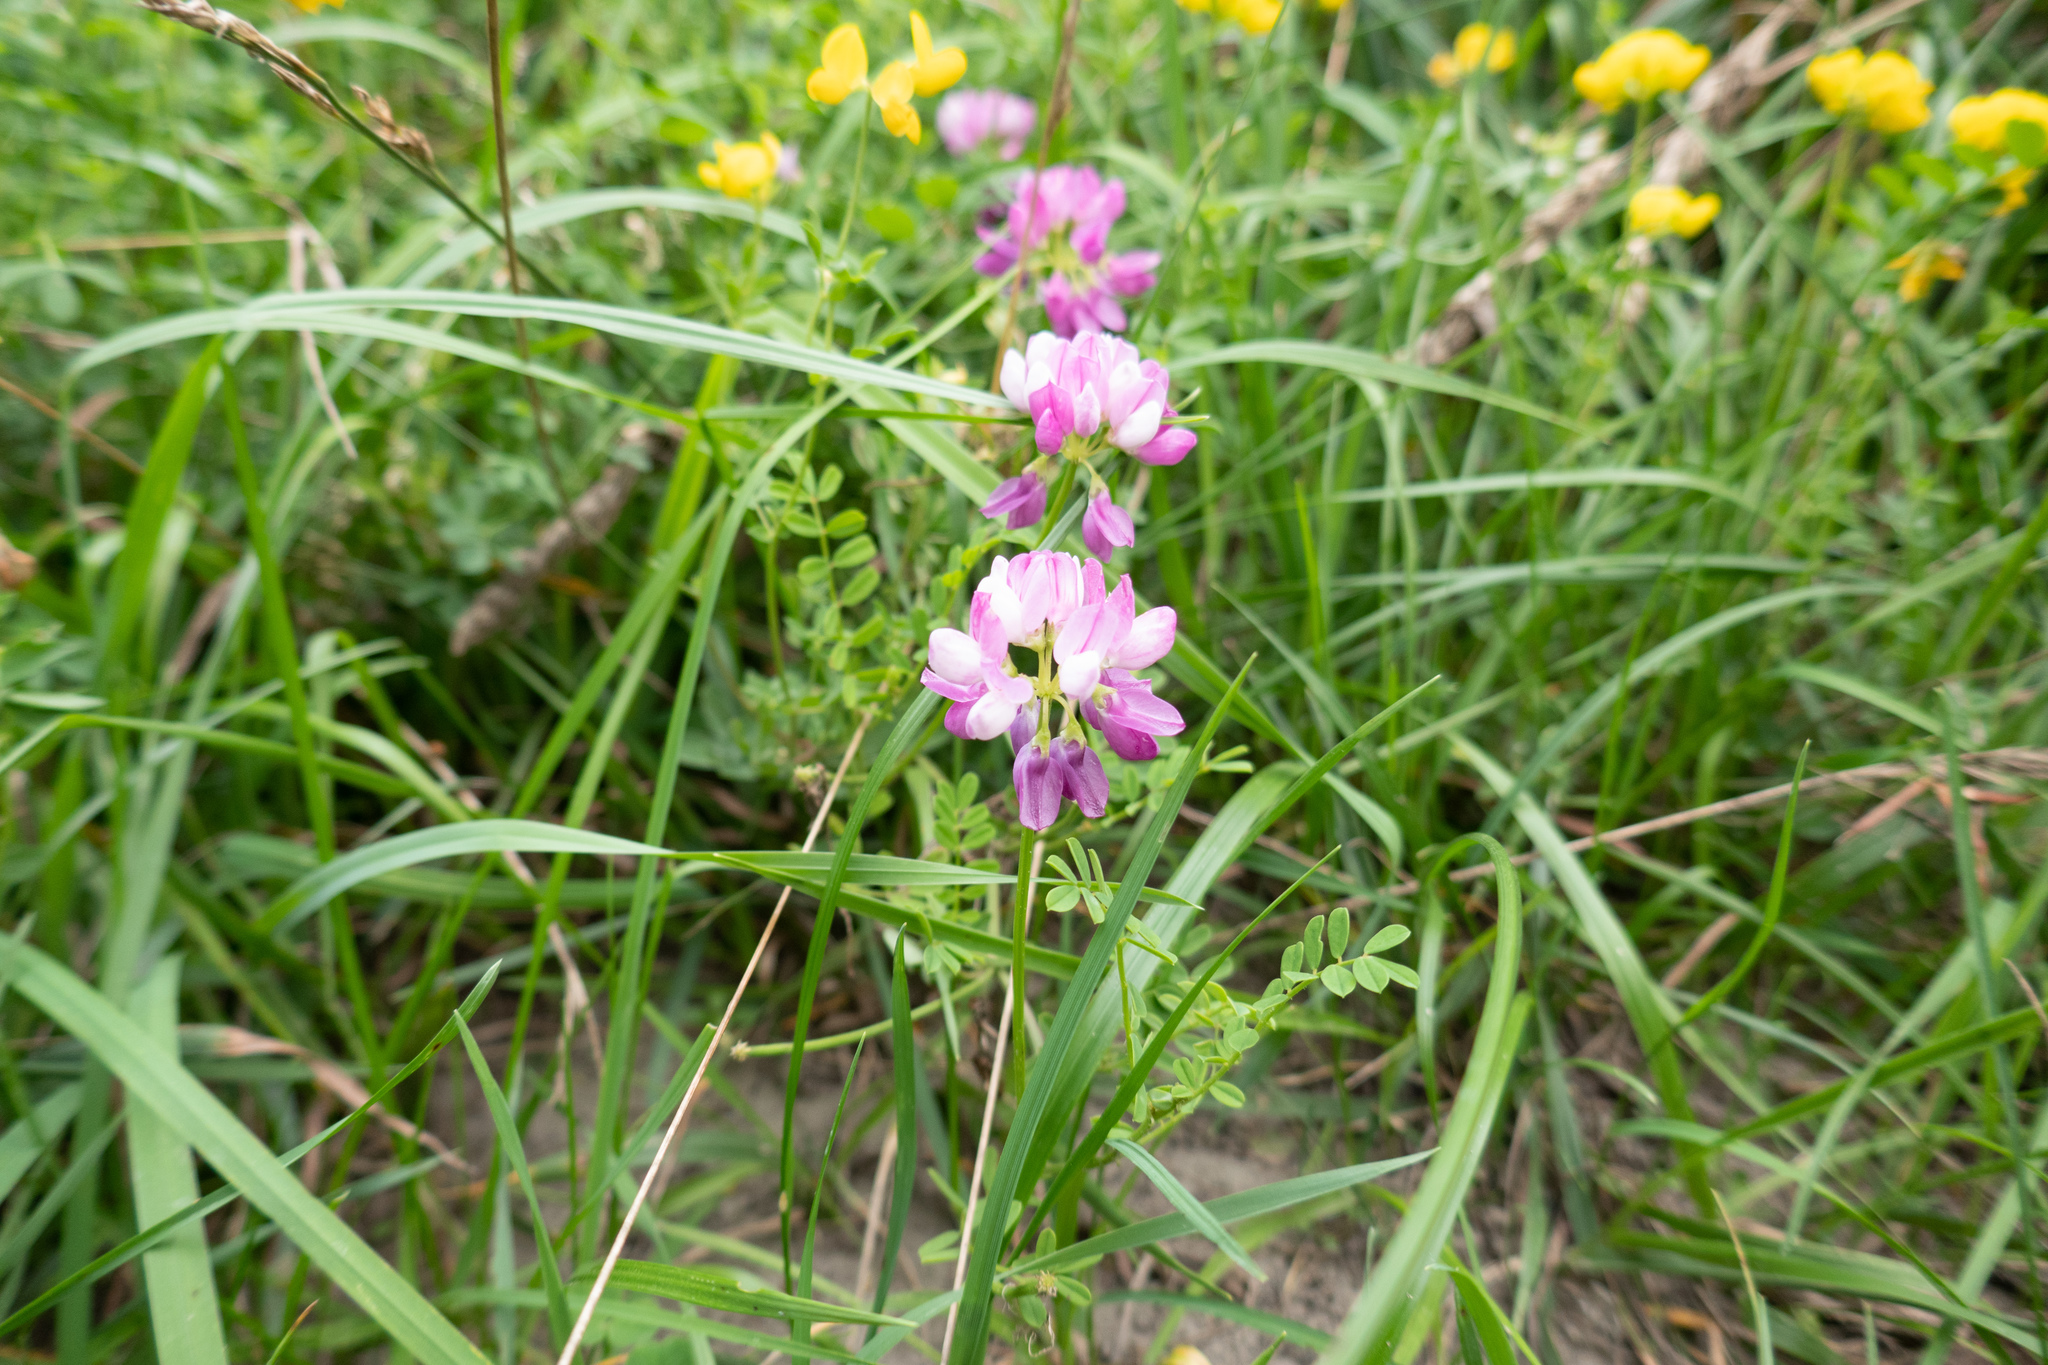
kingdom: Plantae
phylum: Tracheophyta
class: Magnoliopsida
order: Fabales
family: Fabaceae
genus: Coronilla
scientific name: Coronilla varia
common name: Crownvetch
